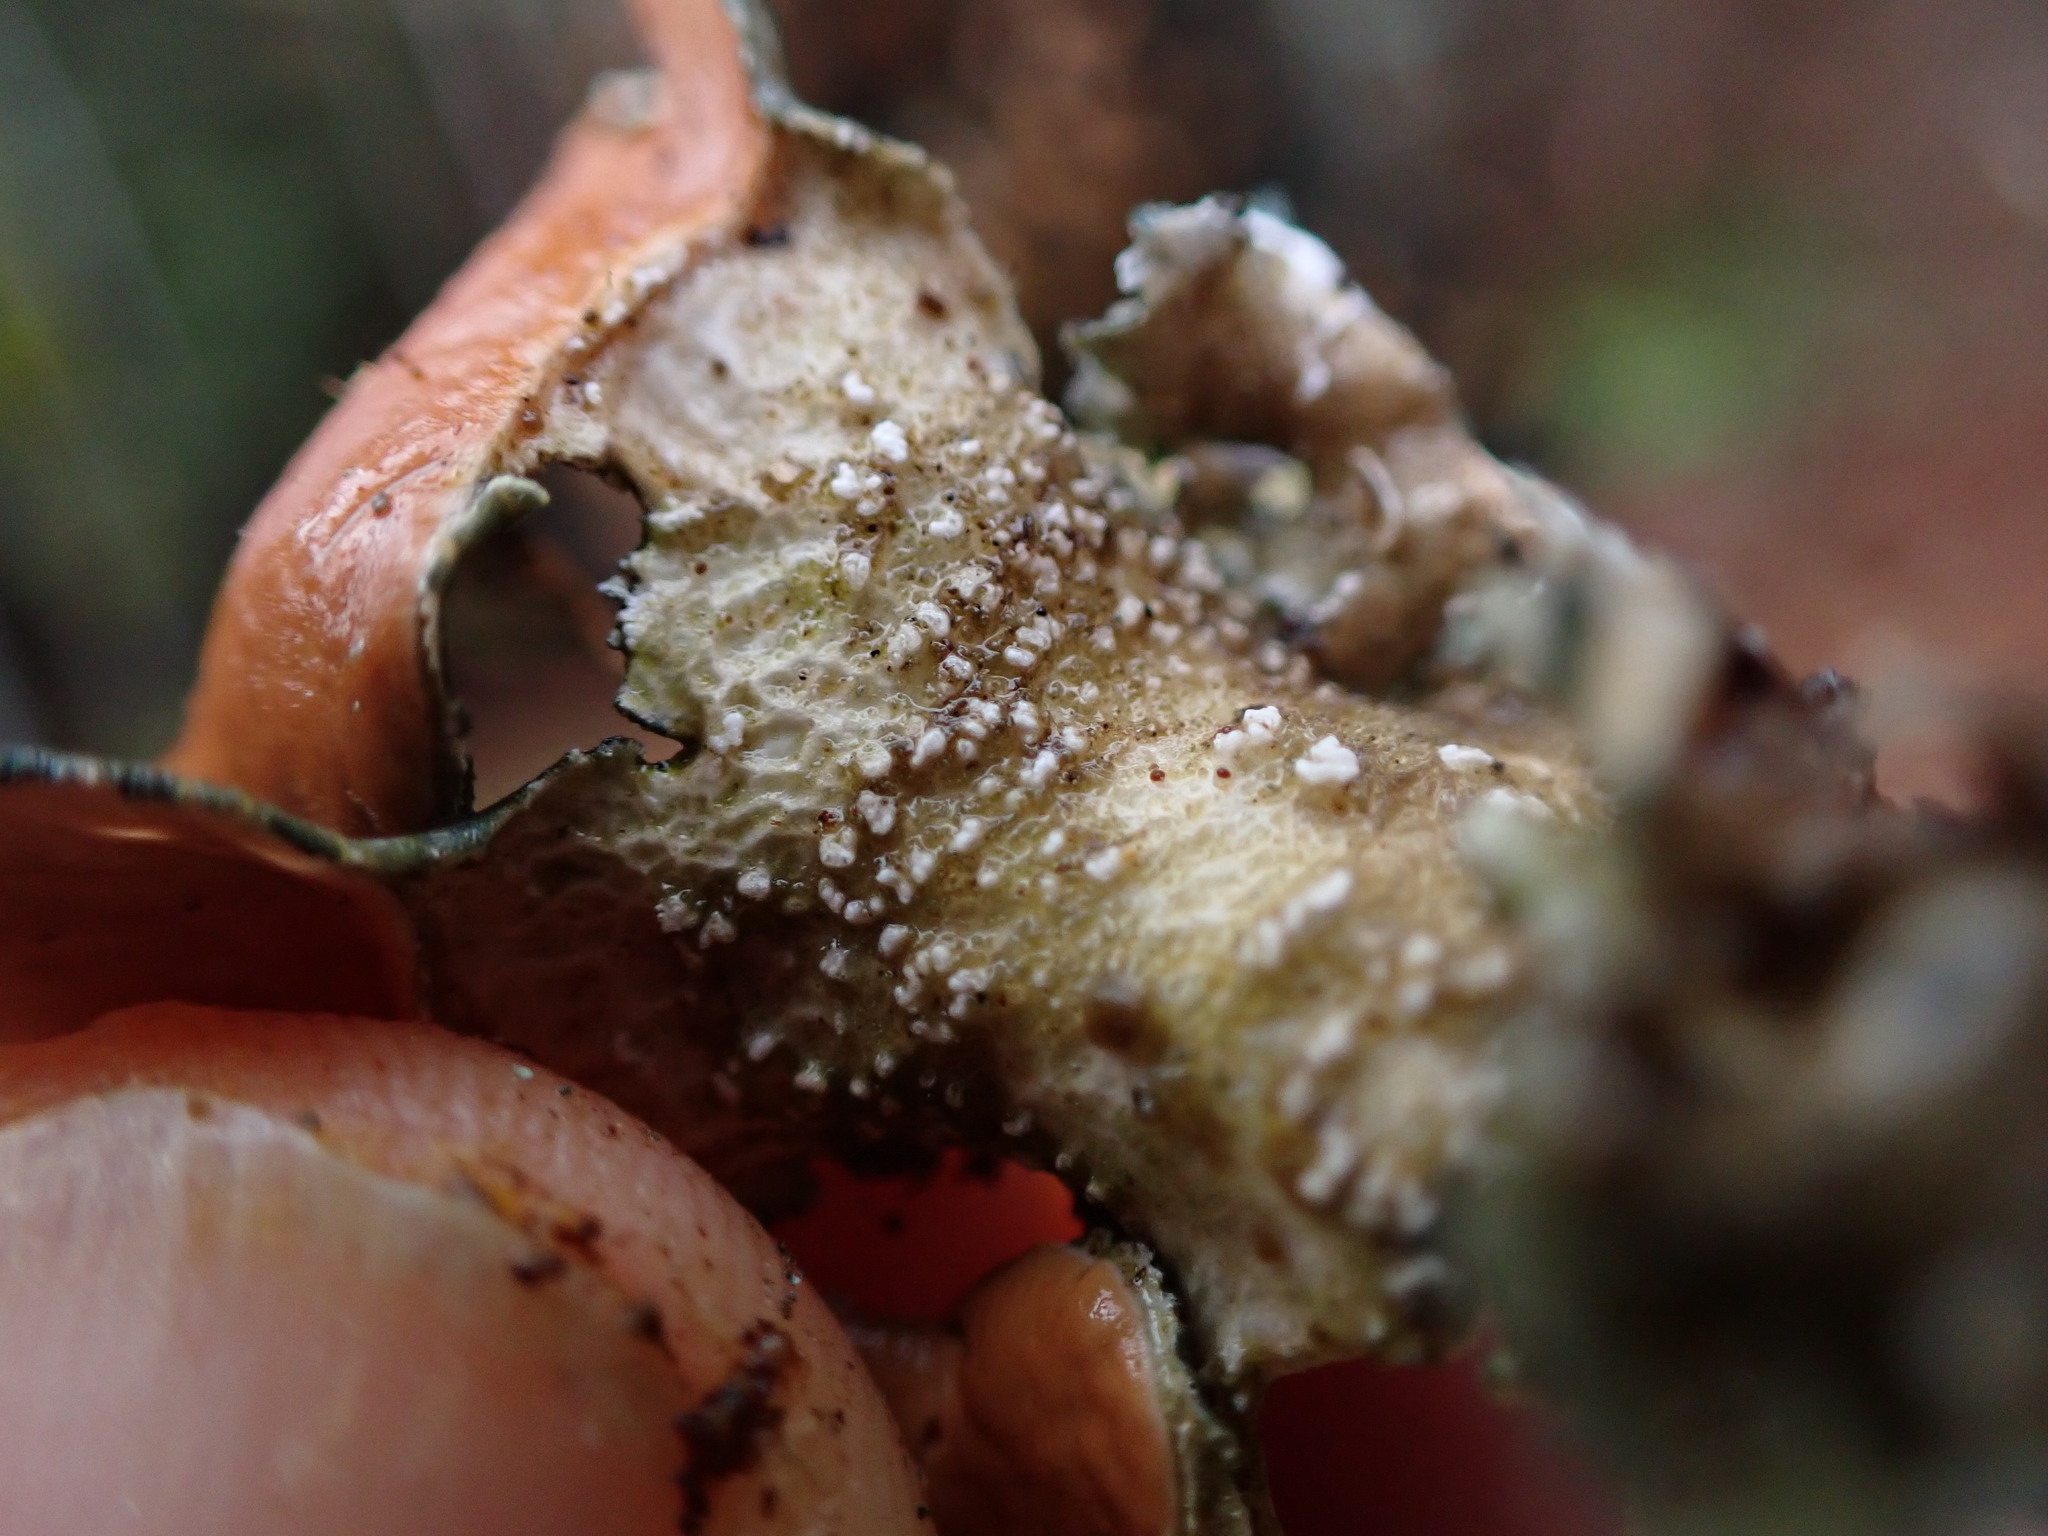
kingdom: Fungi
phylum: Ascomycota
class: Lecanoromycetes
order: Peltigerales
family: Nephromataceae
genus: Nephroma
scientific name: Nephroma resupinatum
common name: Pimpled kidney lichen
